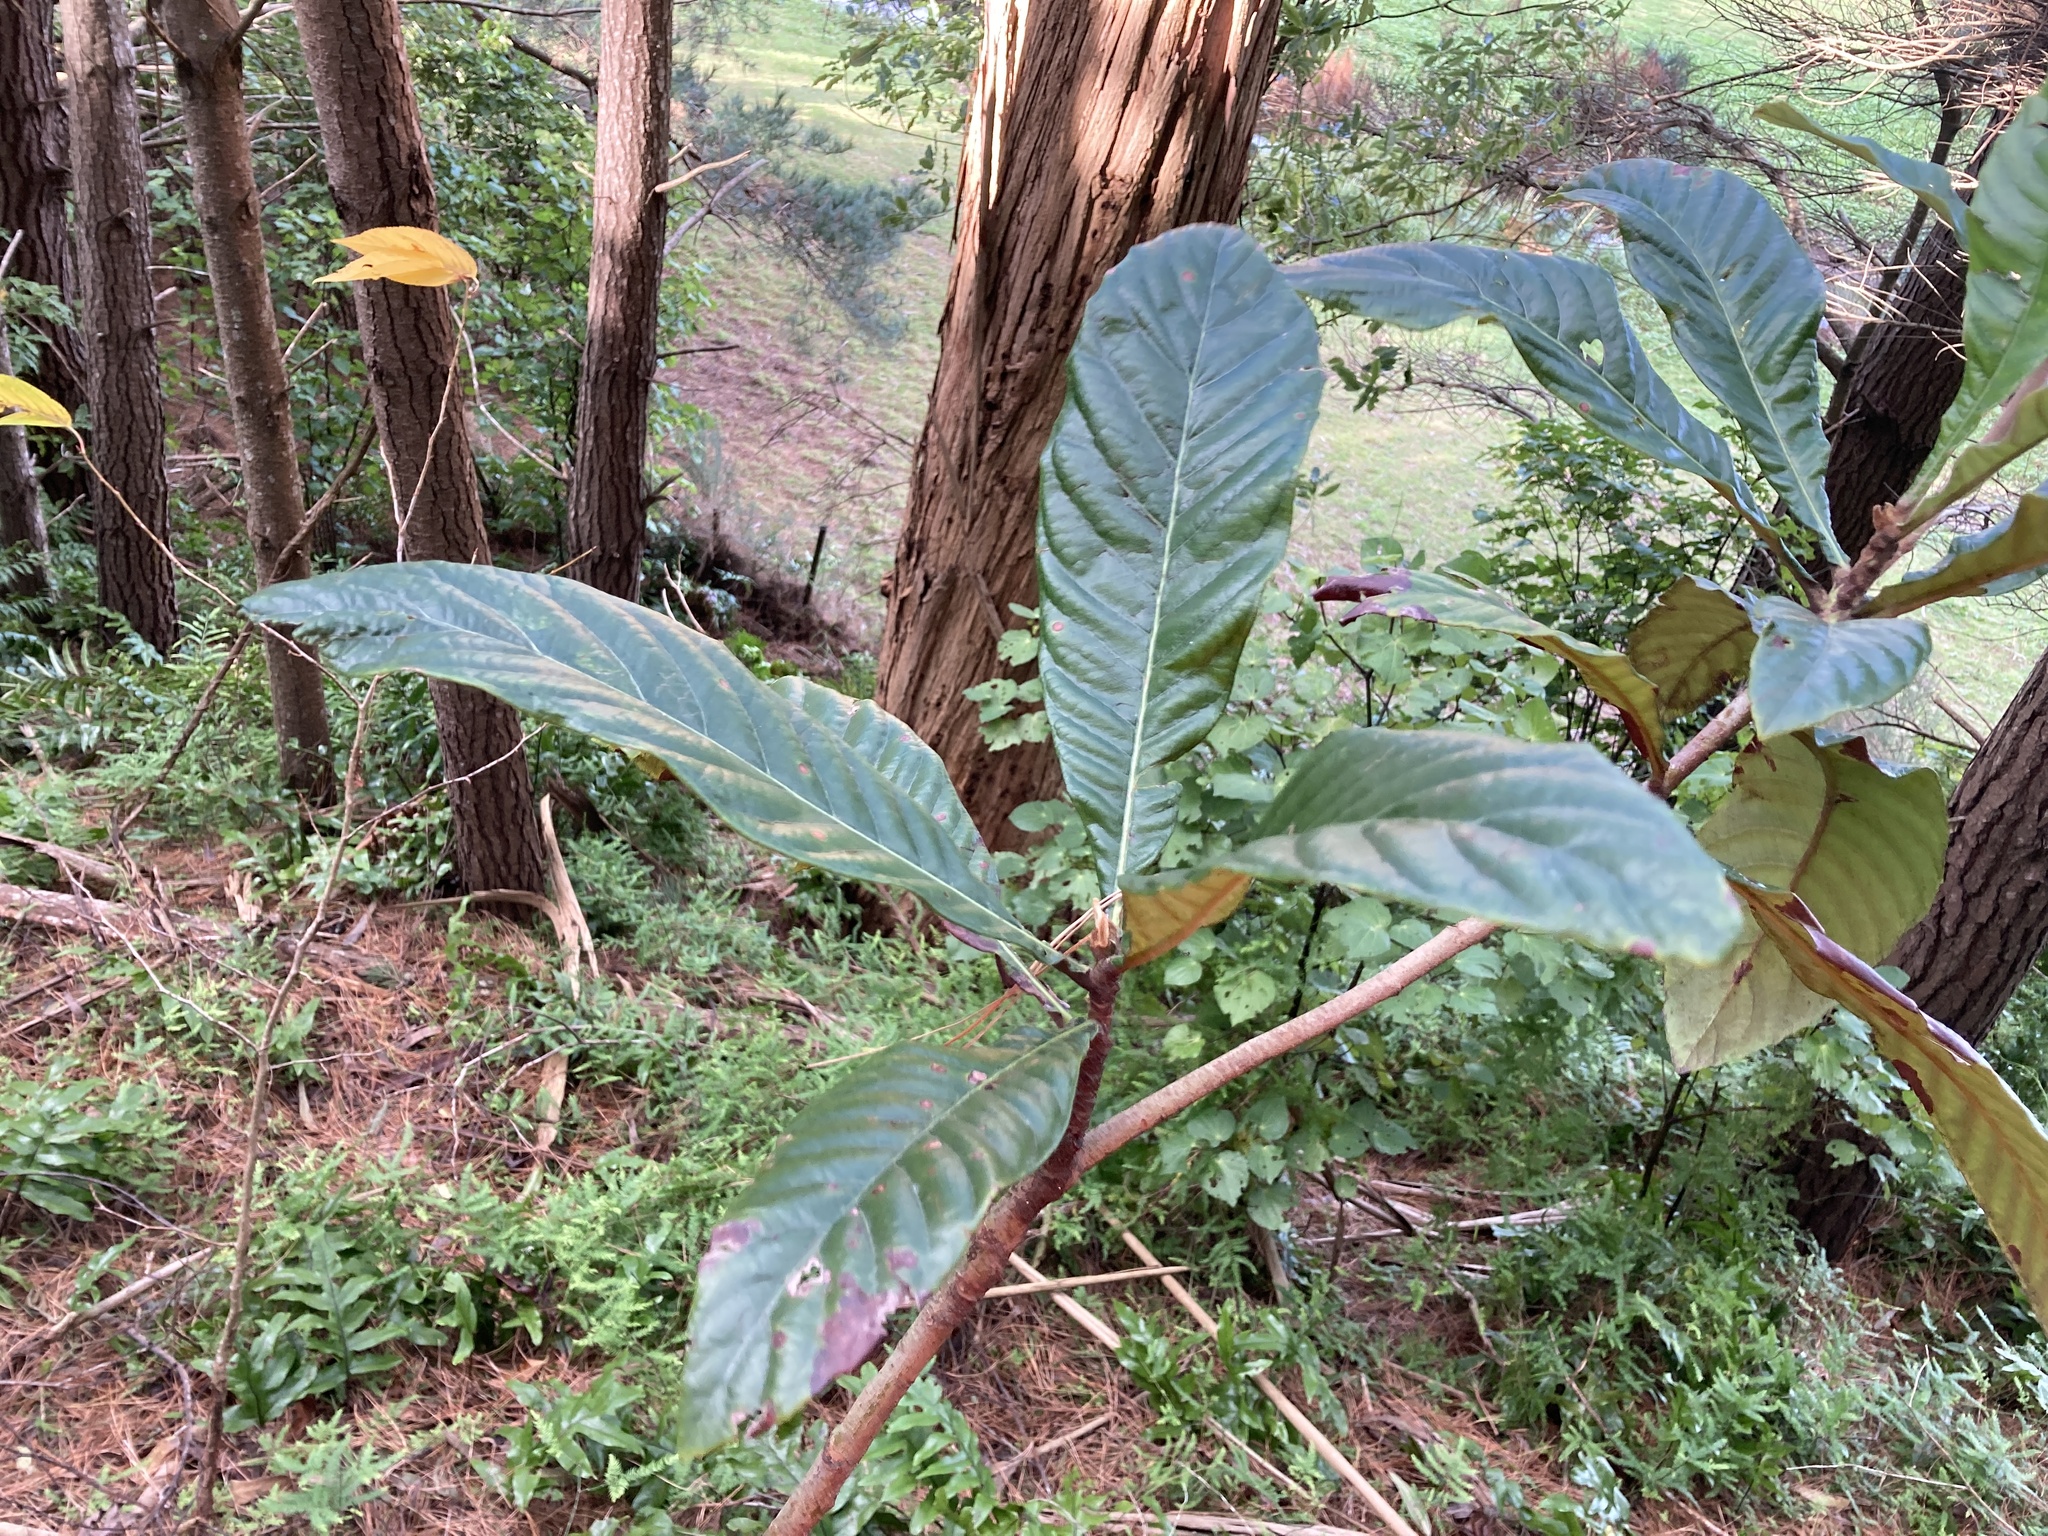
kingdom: Plantae
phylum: Tracheophyta
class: Magnoliopsida
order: Rosales
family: Rosaceae
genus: Rhaphiolepis
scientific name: Rhaphiolepis bibas
